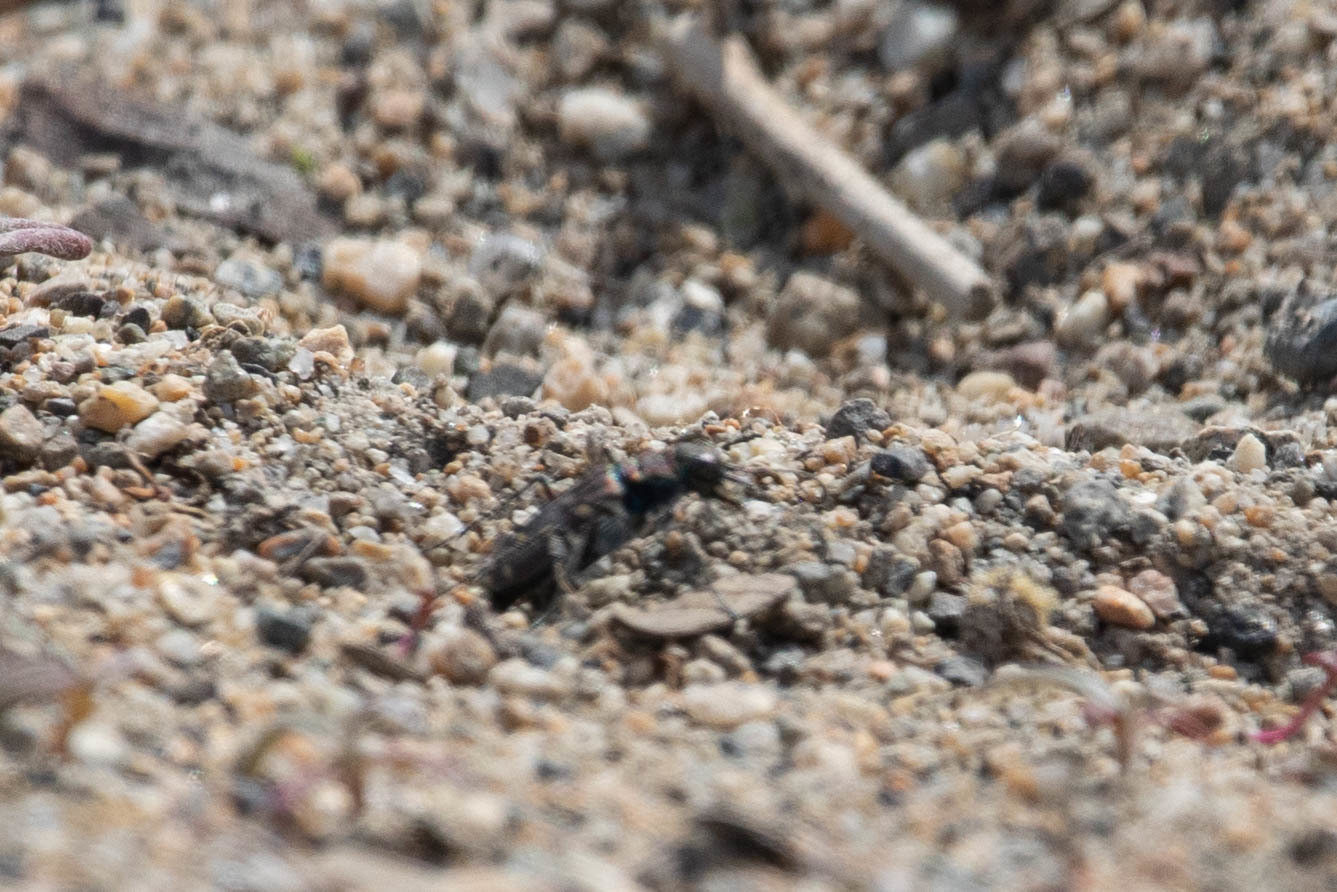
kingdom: Animalia
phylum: Arthropoda
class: Insecta
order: Coleoptera
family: Carabidae
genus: Cicindela
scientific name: Cicindela oregona
